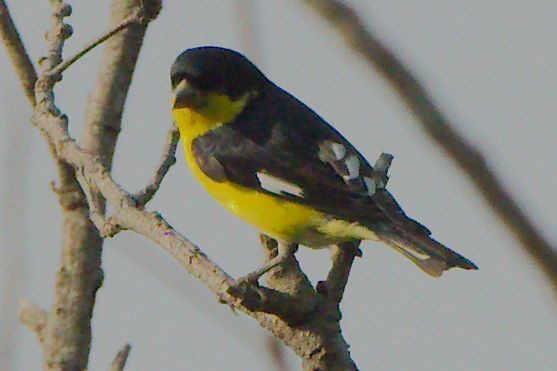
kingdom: Animalia
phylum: Chordata
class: Aves
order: Passeriformes
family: Fringillidae
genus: Spinus
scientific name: Spinus psaltria
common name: Lesser goldfinch
